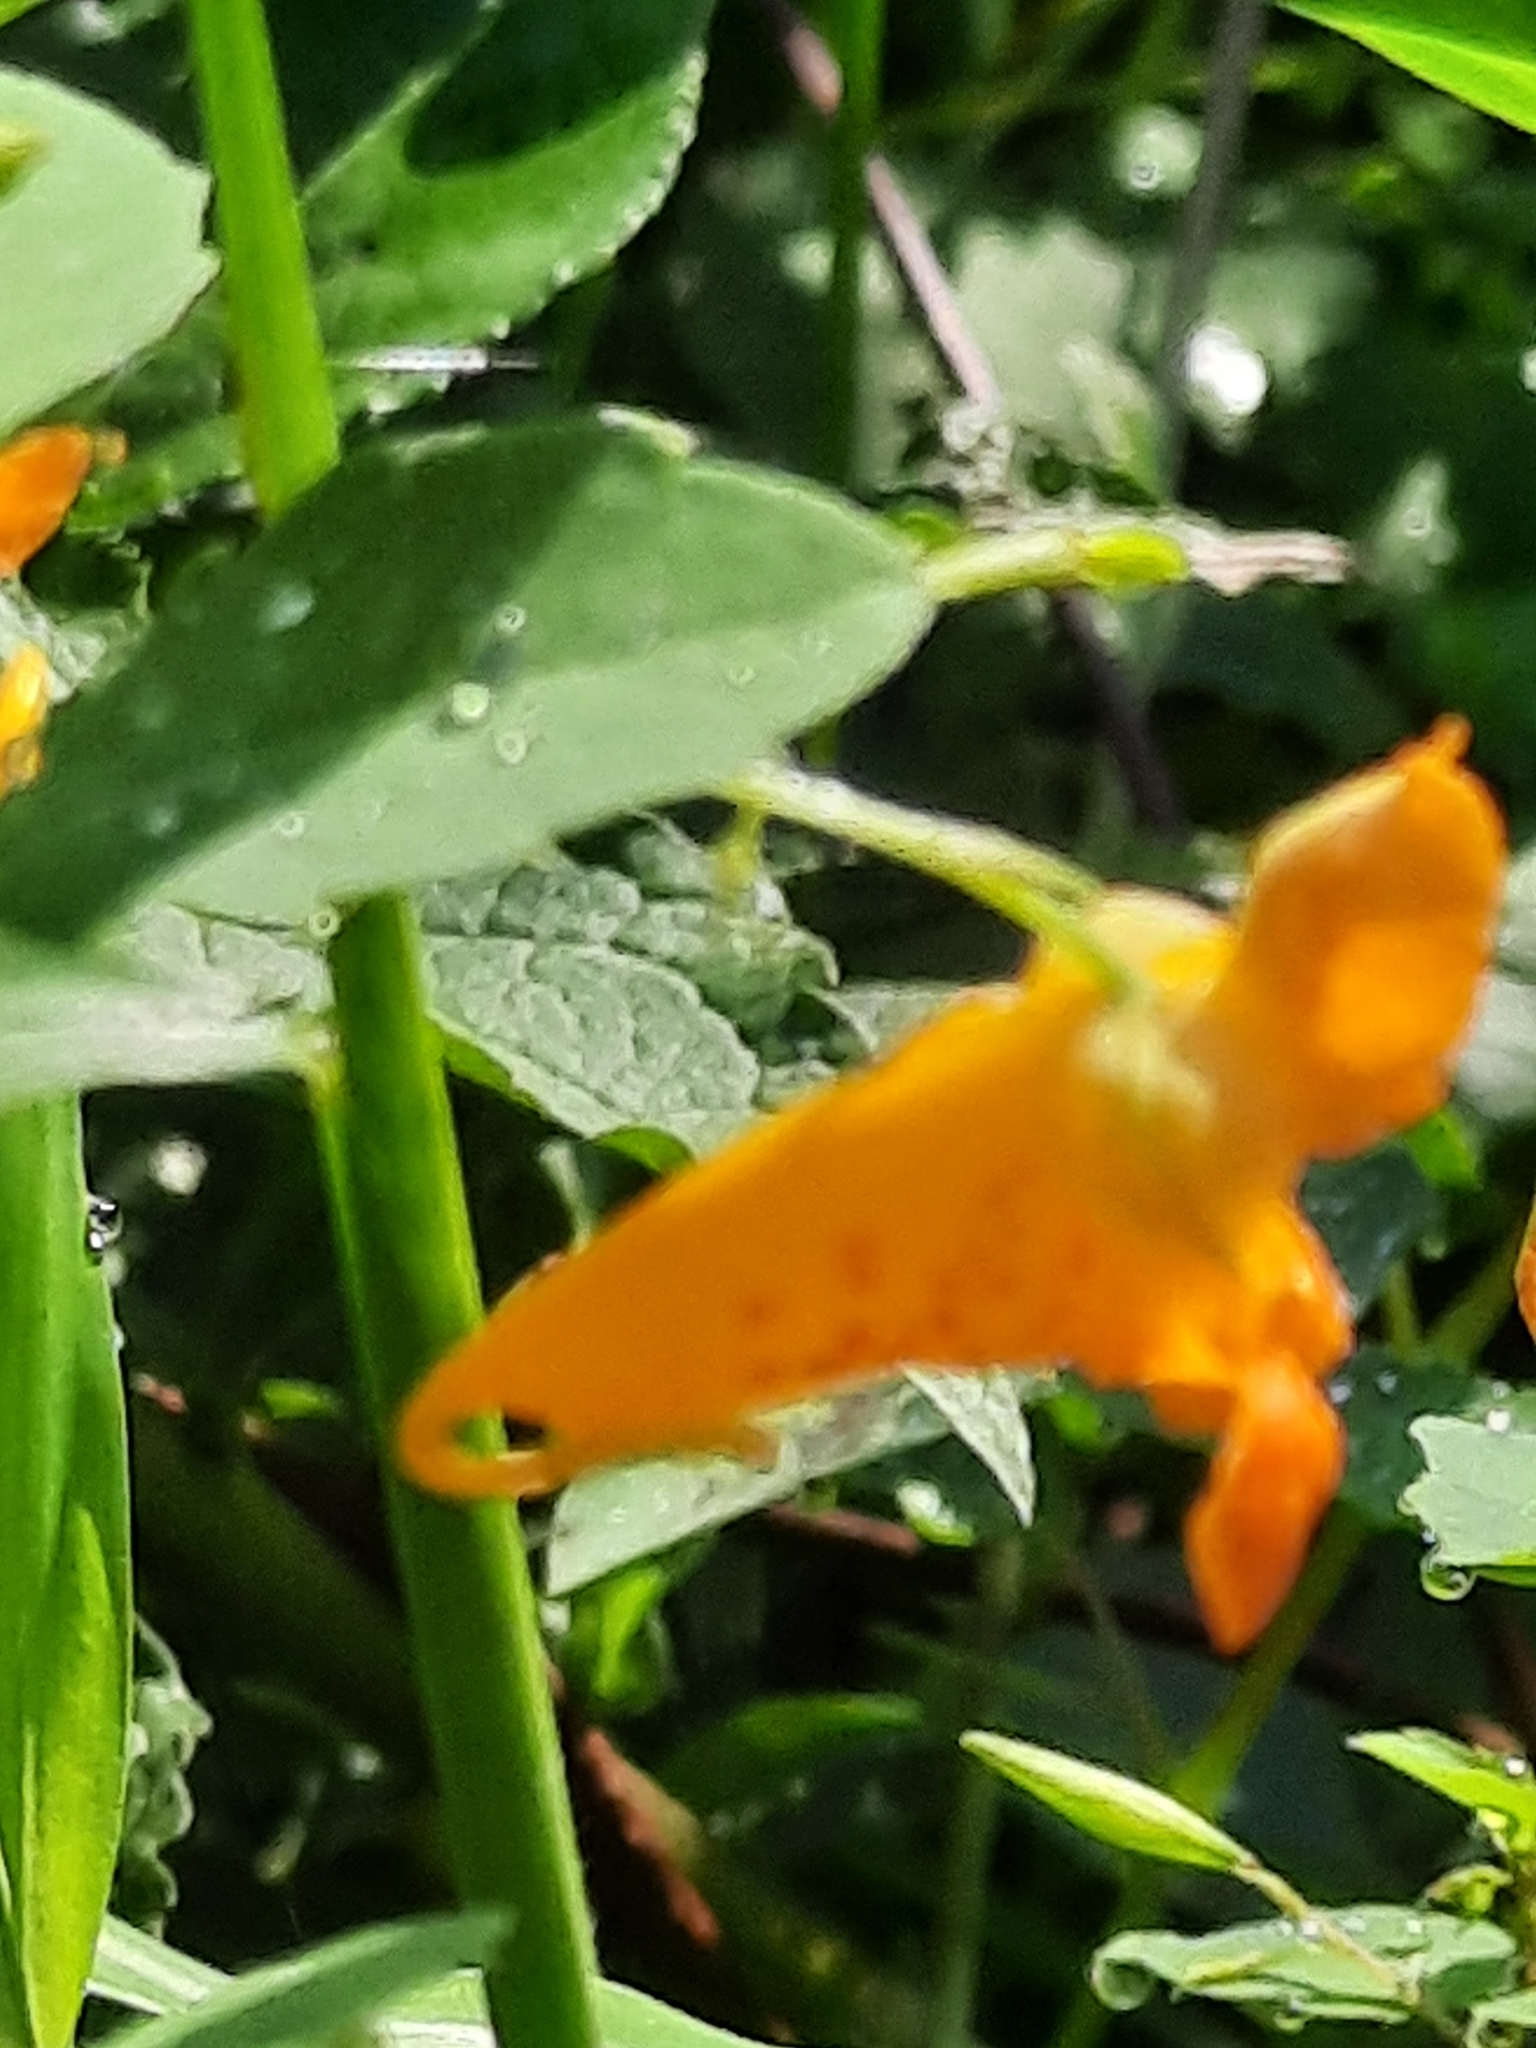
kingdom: Plantae
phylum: Tracheophyta
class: Magnoliopsida
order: Ericales
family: Balsaminaceae
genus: Impatiens
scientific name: Impatiens capensis
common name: Orange balsam
